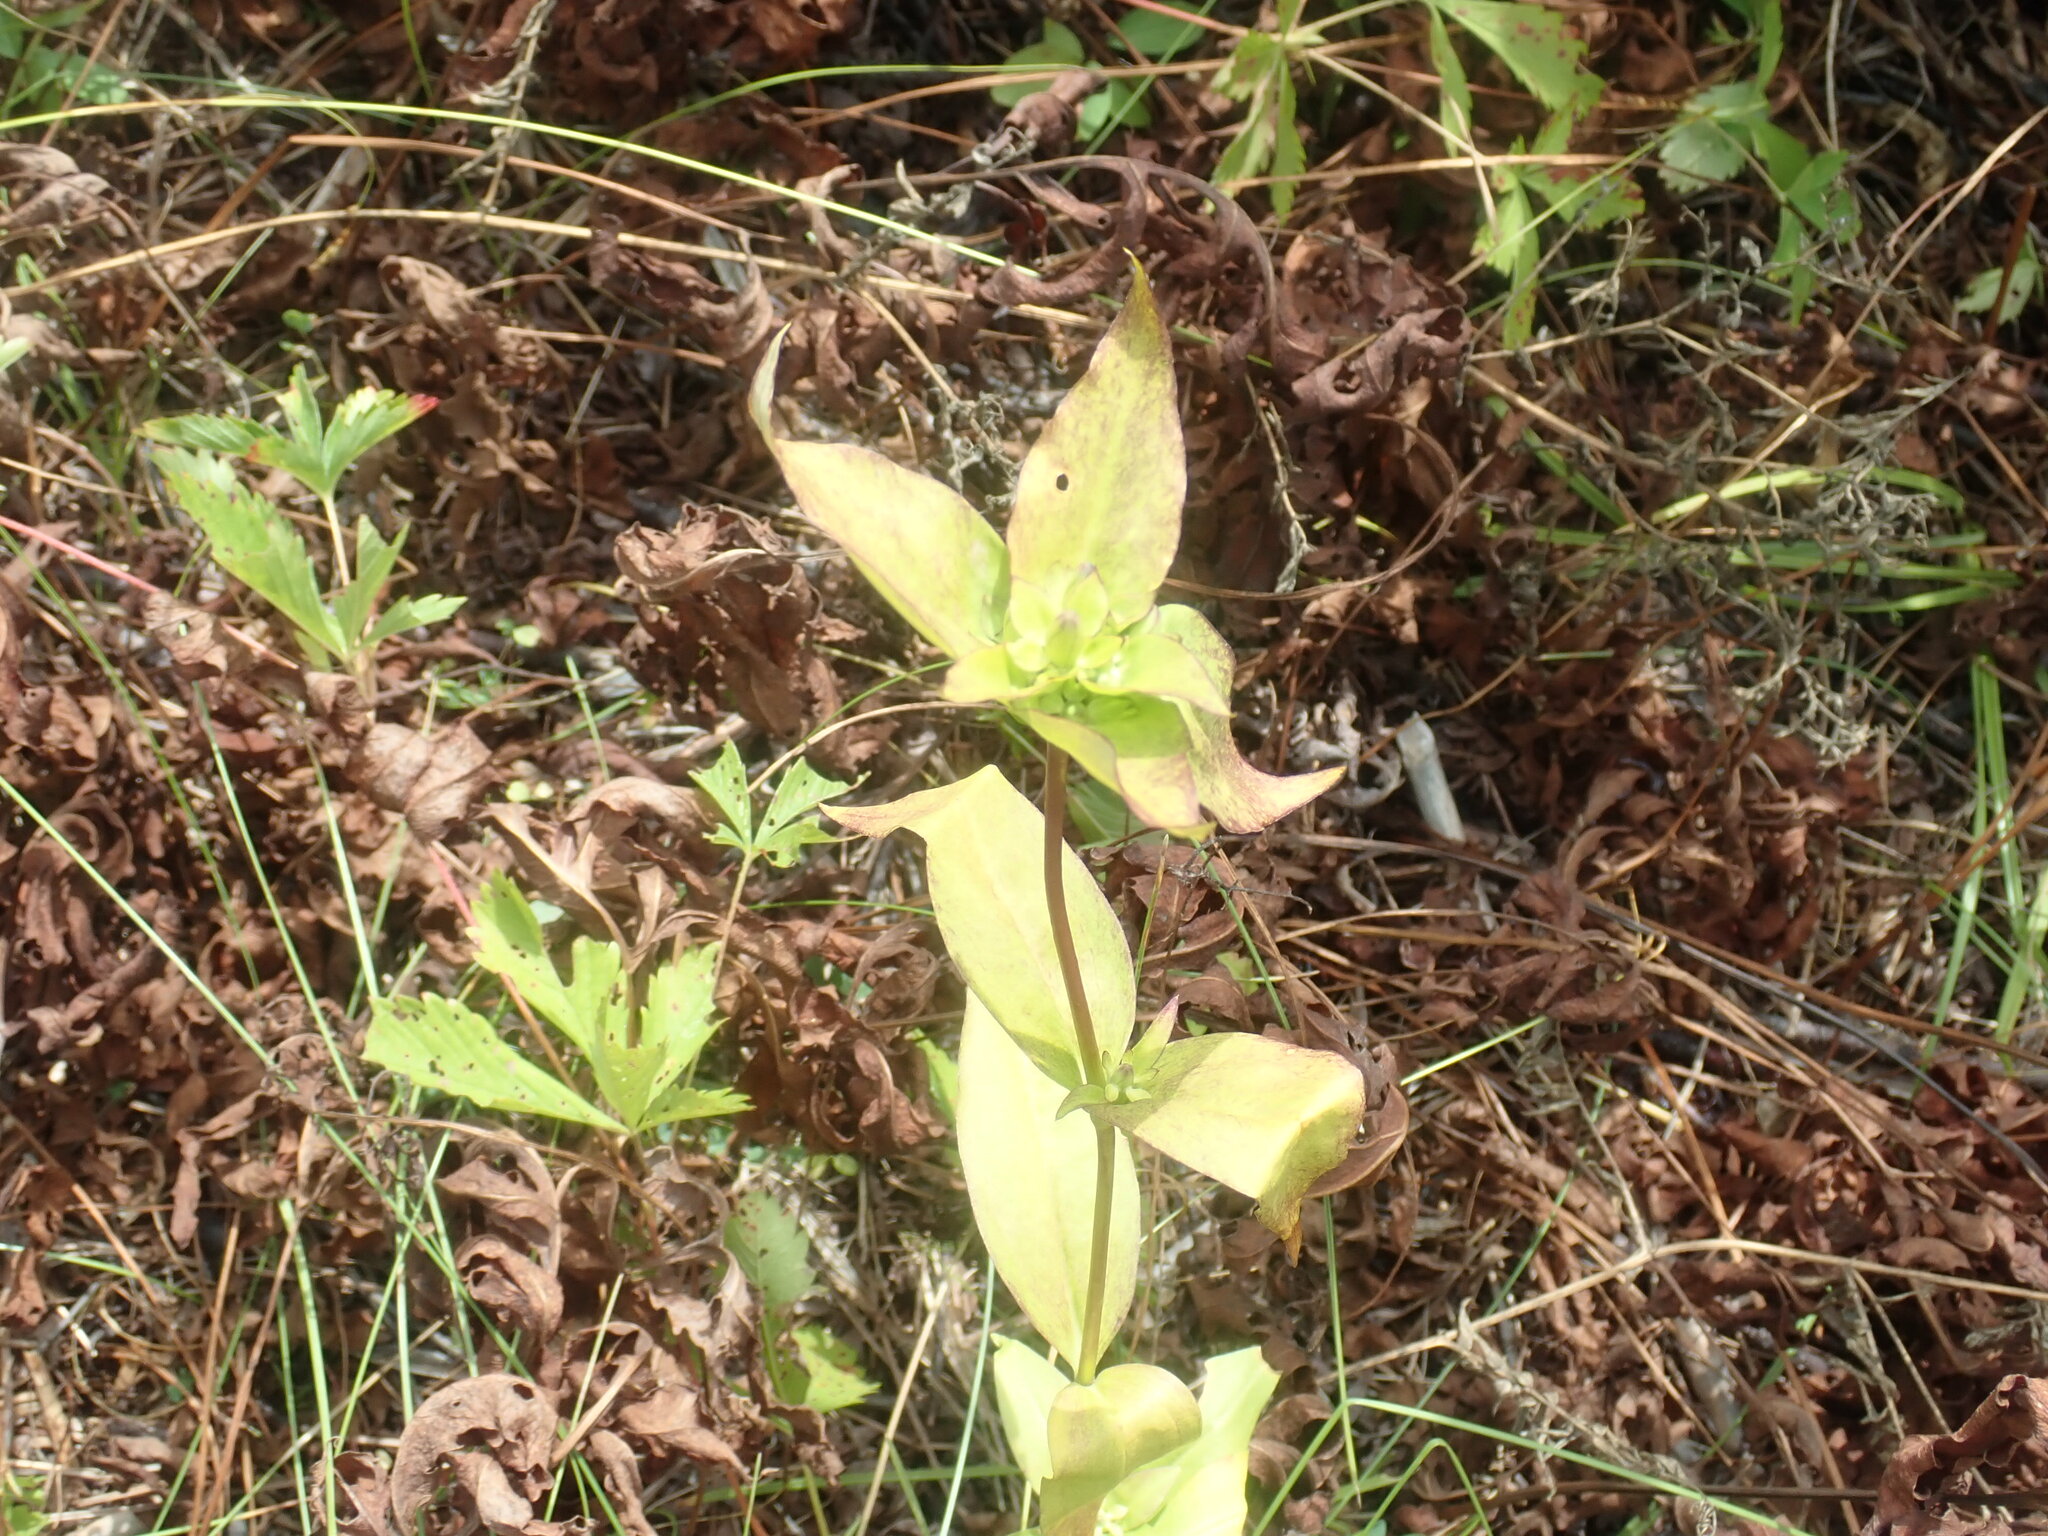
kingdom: Plantae
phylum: Tracheophyta
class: Magnoliopsida
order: Gentianales
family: Gentianaceae
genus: Gentiana
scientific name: Gentiana clausa
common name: Blind gentian
